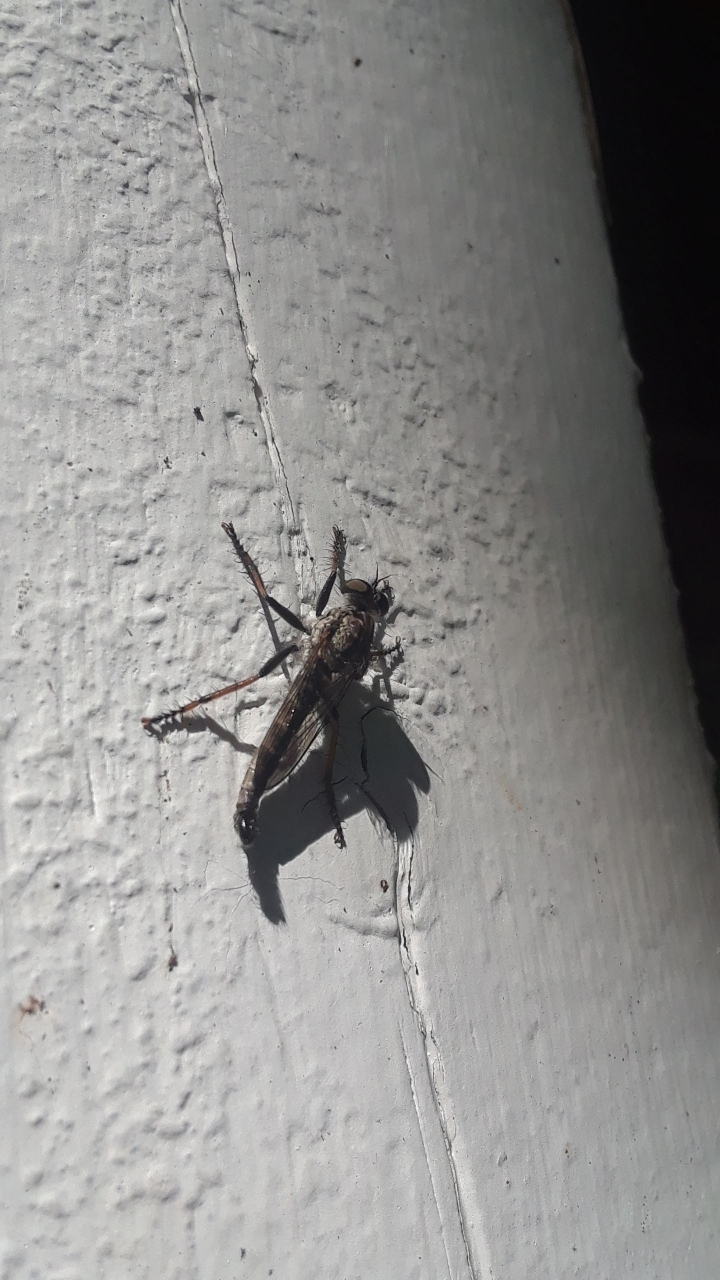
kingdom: Animalia
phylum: Arthropoda
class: Insecta
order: Diptera
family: Asilidae
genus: Machimus
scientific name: Machimus sadyates
